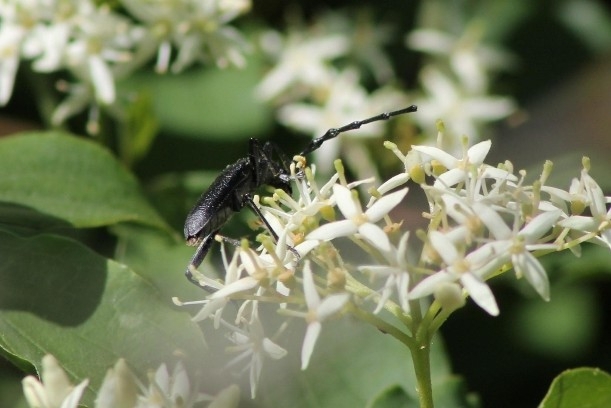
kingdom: Animalia
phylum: Arthropoda
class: Insecta
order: Coleoptera
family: Cerambycidae
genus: Cerambyx
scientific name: Cerambyx scopolii
